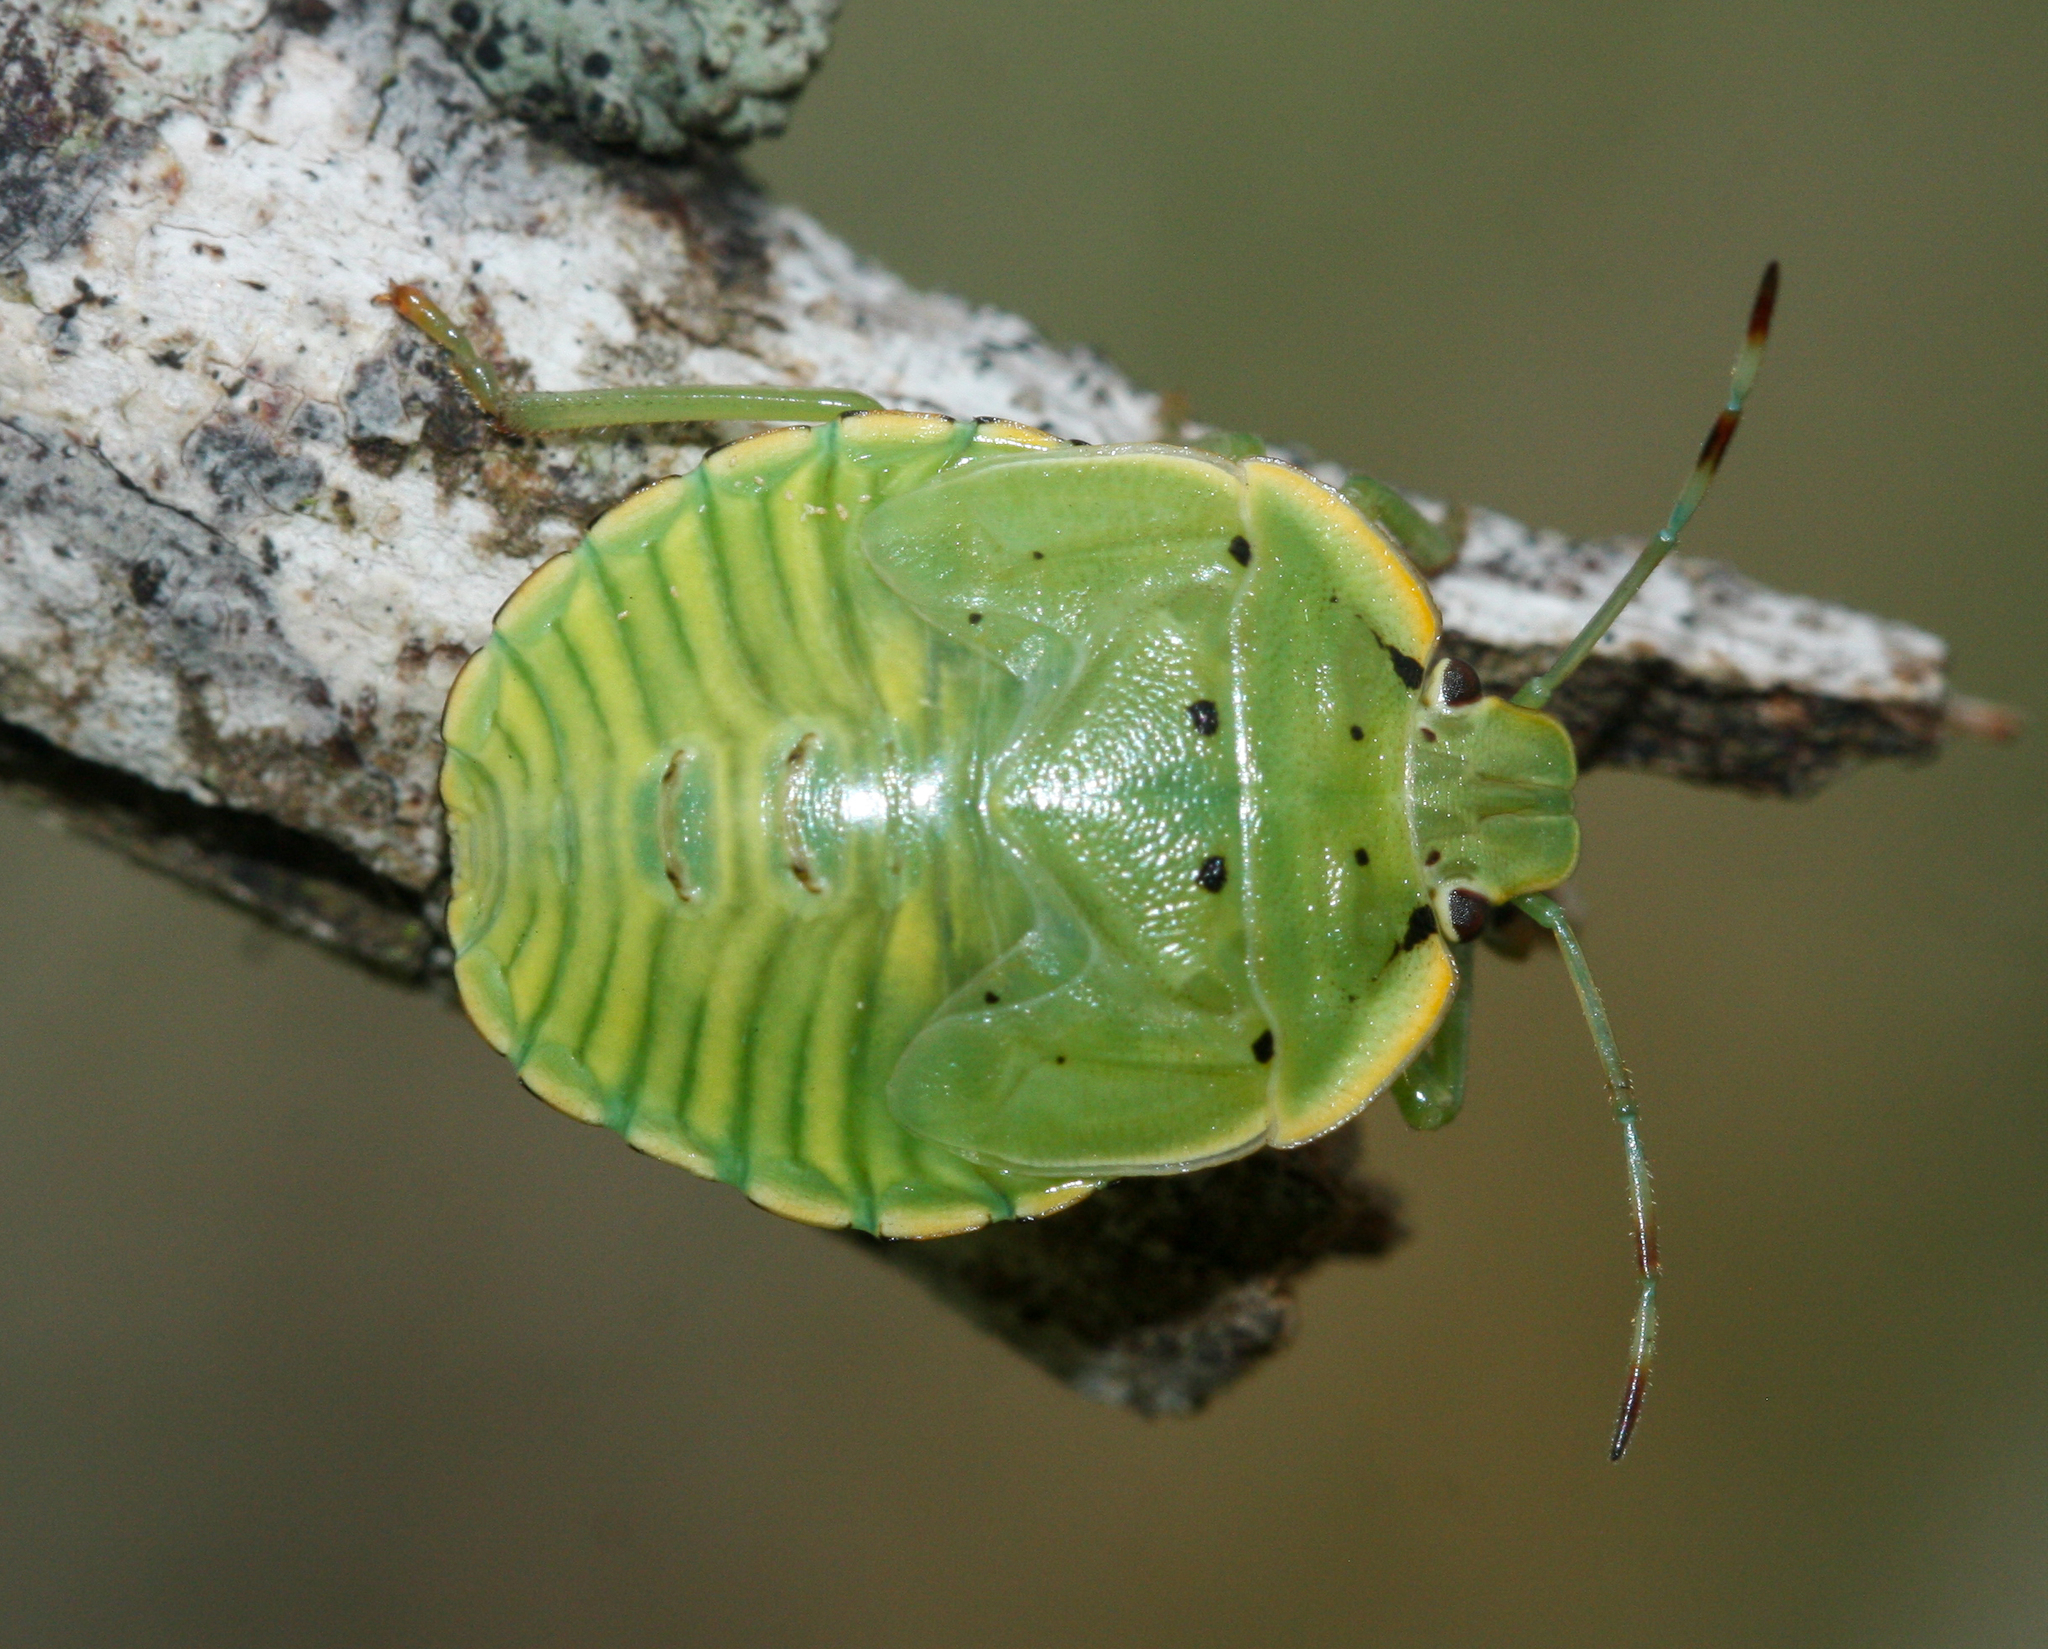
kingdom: Animalia
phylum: Arthropoda
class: Insecta
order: Hemiptera
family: Pentatomidae
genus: Chinavia
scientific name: Chinavia hilaris
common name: Green stink bug
